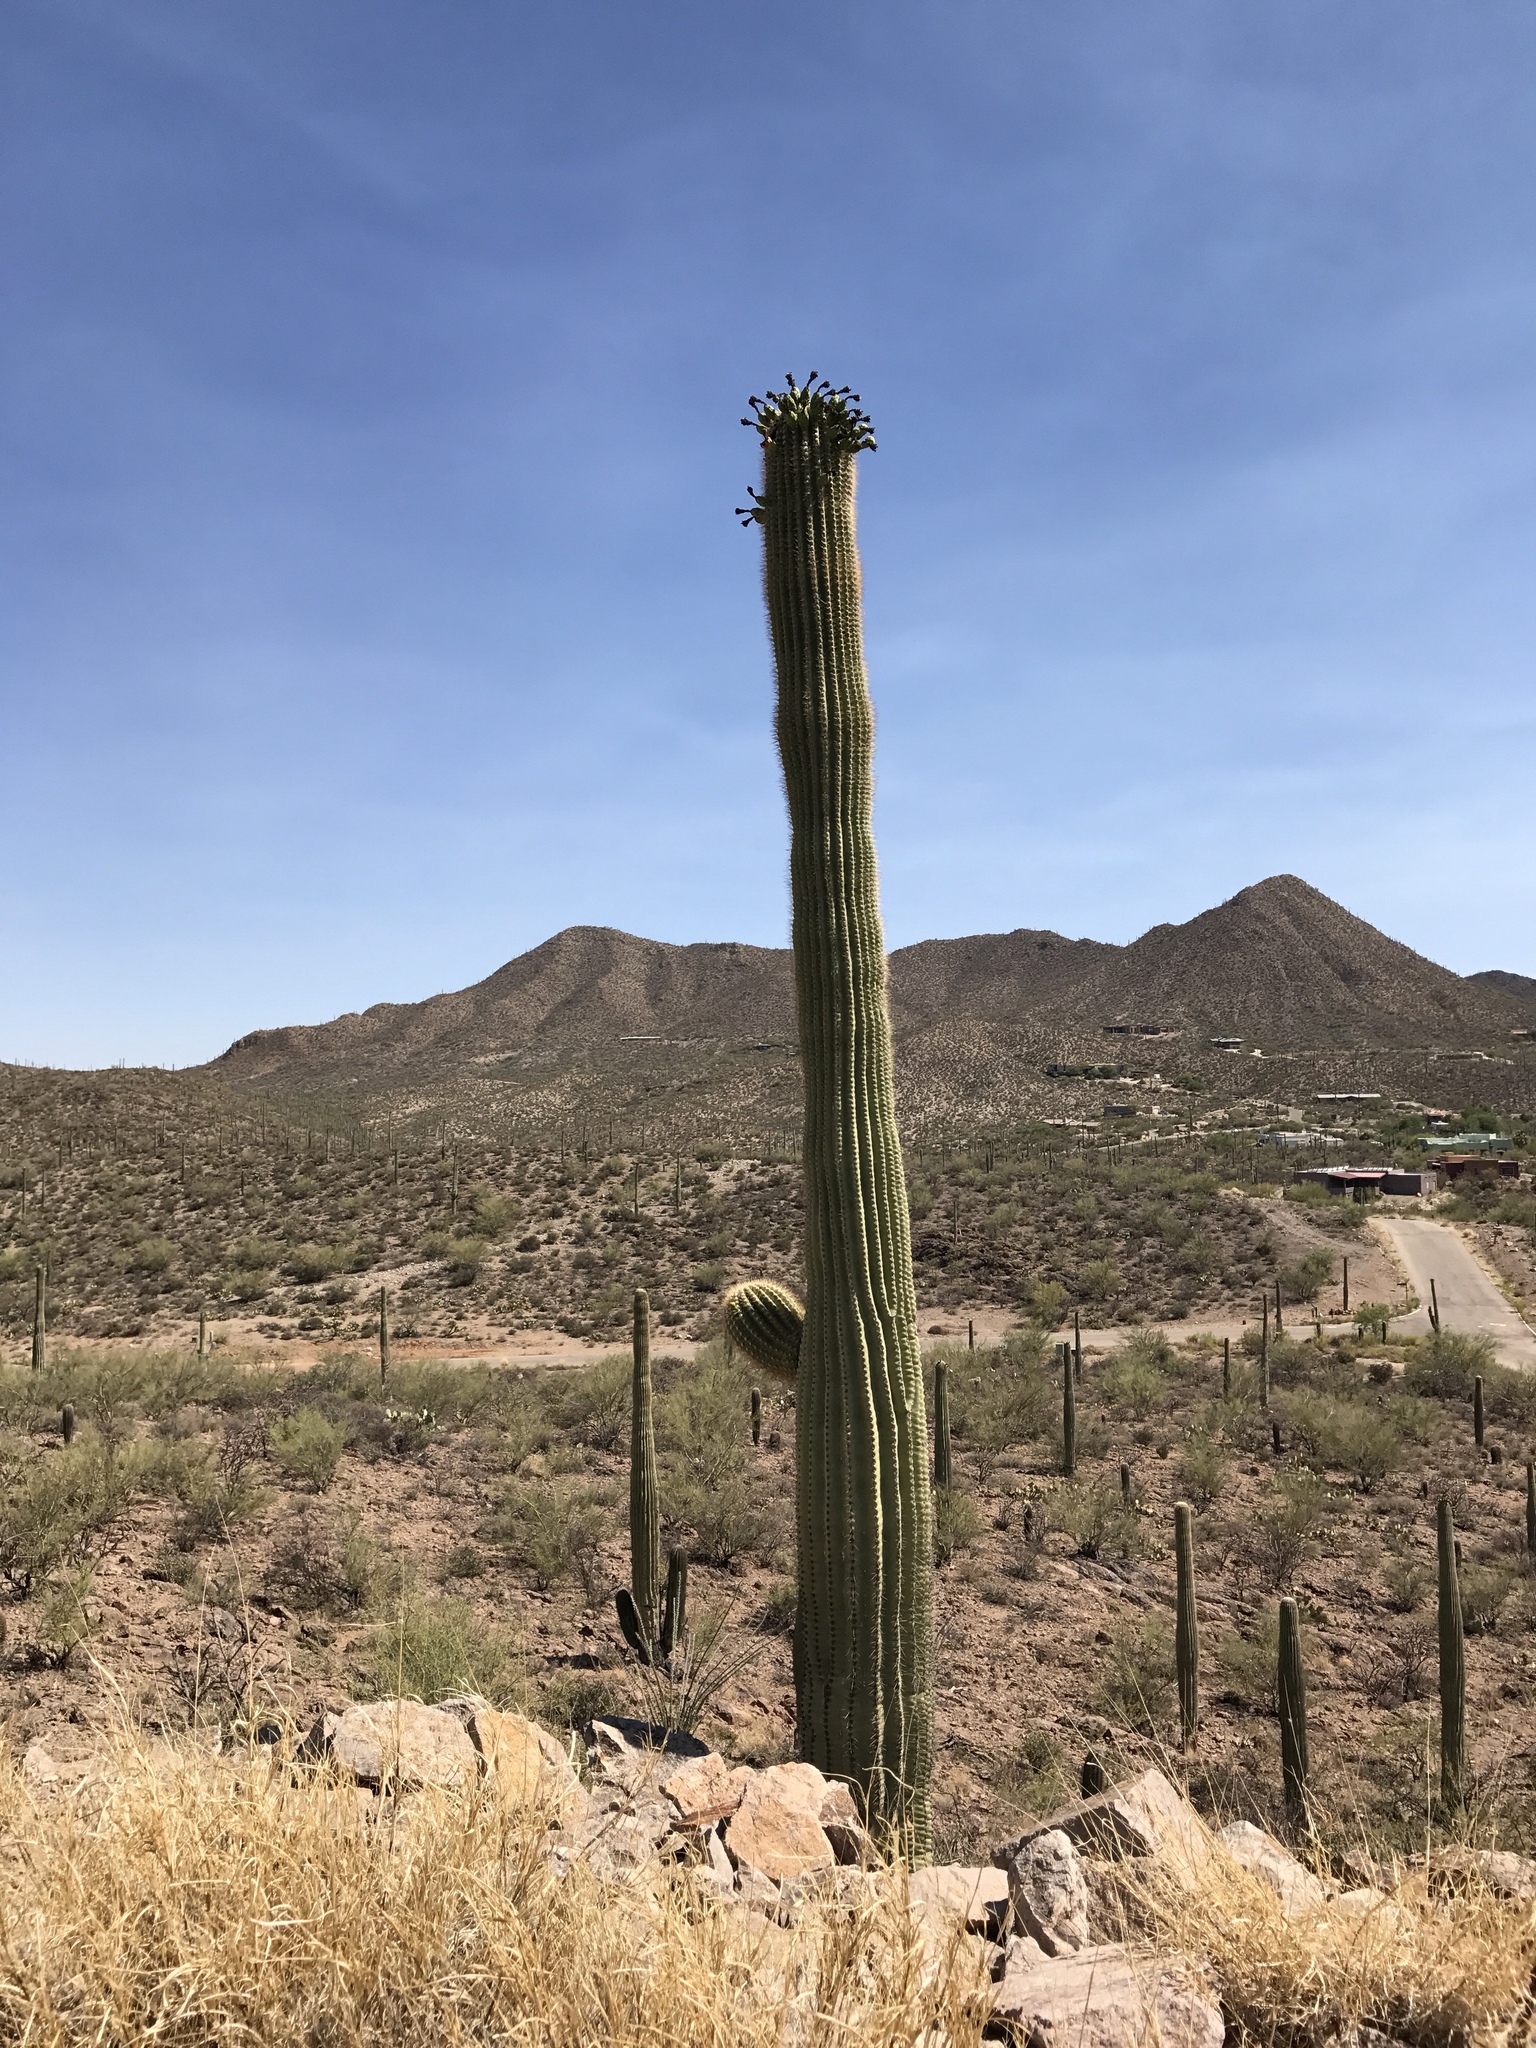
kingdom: Plantae
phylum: Tracheophyta
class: Magnoliopsida
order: Caryophyllales
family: Cactaceae
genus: Carnegiea
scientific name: Carnegiea gigantea
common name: Saguaro
